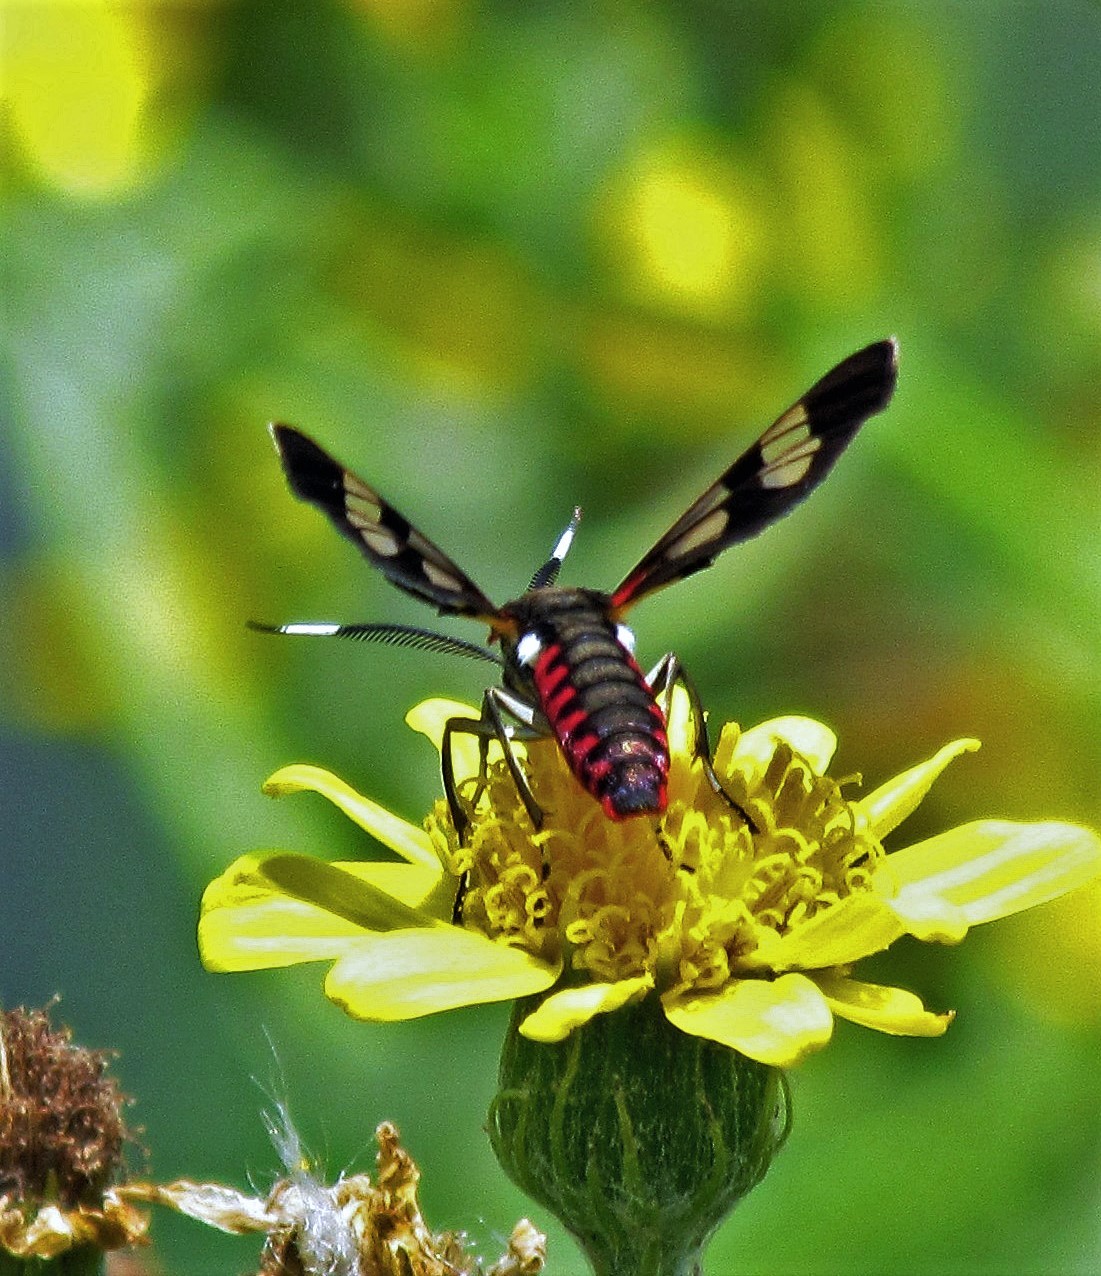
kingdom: Animalia
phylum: Arthropoda
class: Insecta
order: Lepidoptera
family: Erebidae
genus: Phoenicoprocta
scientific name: Phoenicoprocta teda
